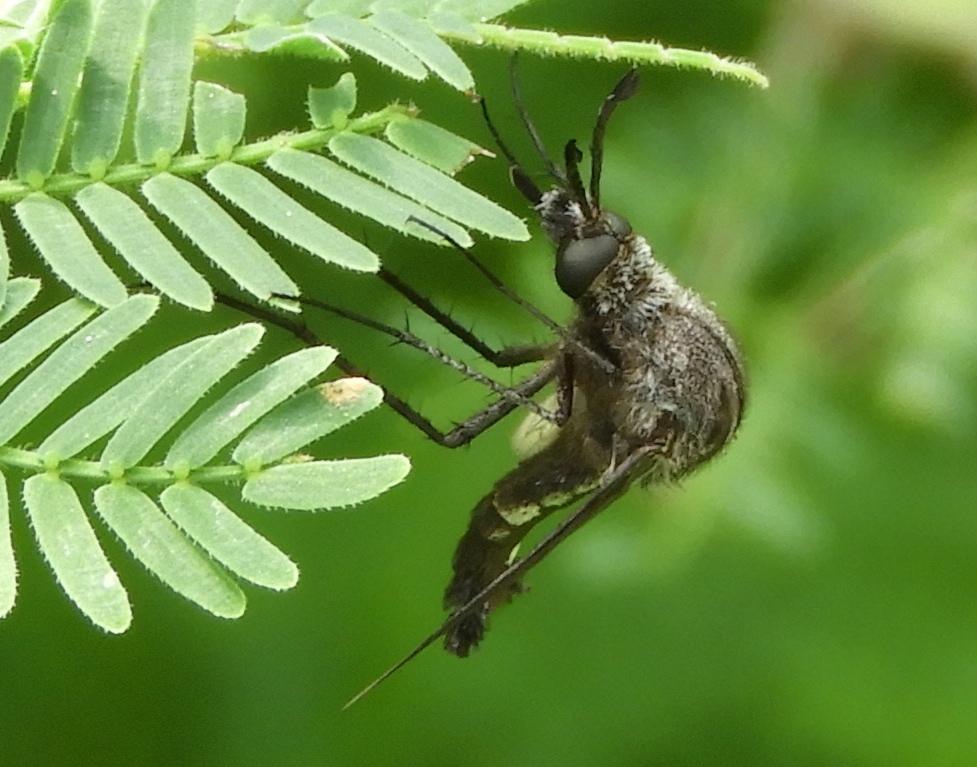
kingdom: Animalia
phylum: Arthropoda
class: Insecta
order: Diptera
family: Bombyliidae
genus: Lepidophora
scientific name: Lepidophora vetusta
